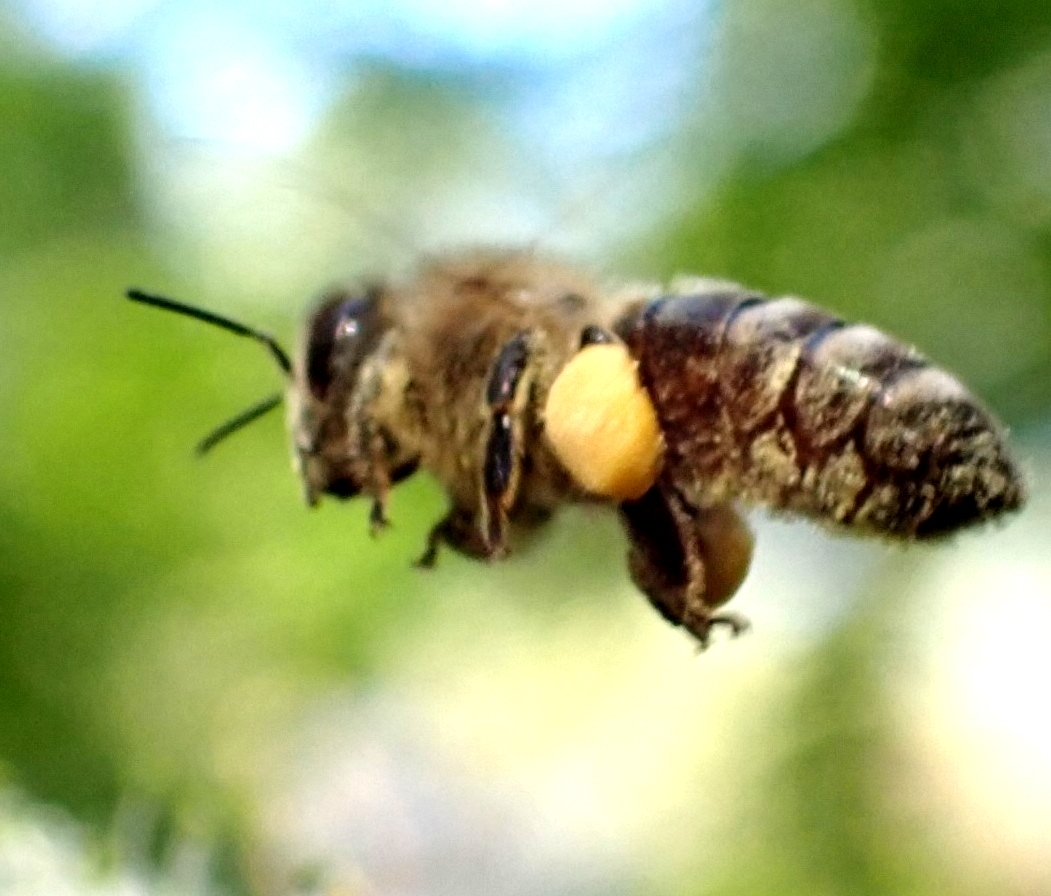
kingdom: Animalia
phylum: Arthropoda
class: Insecta
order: Hymenoptera
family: Apidae
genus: Apis
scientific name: Apis mellifera
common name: Honey bee
